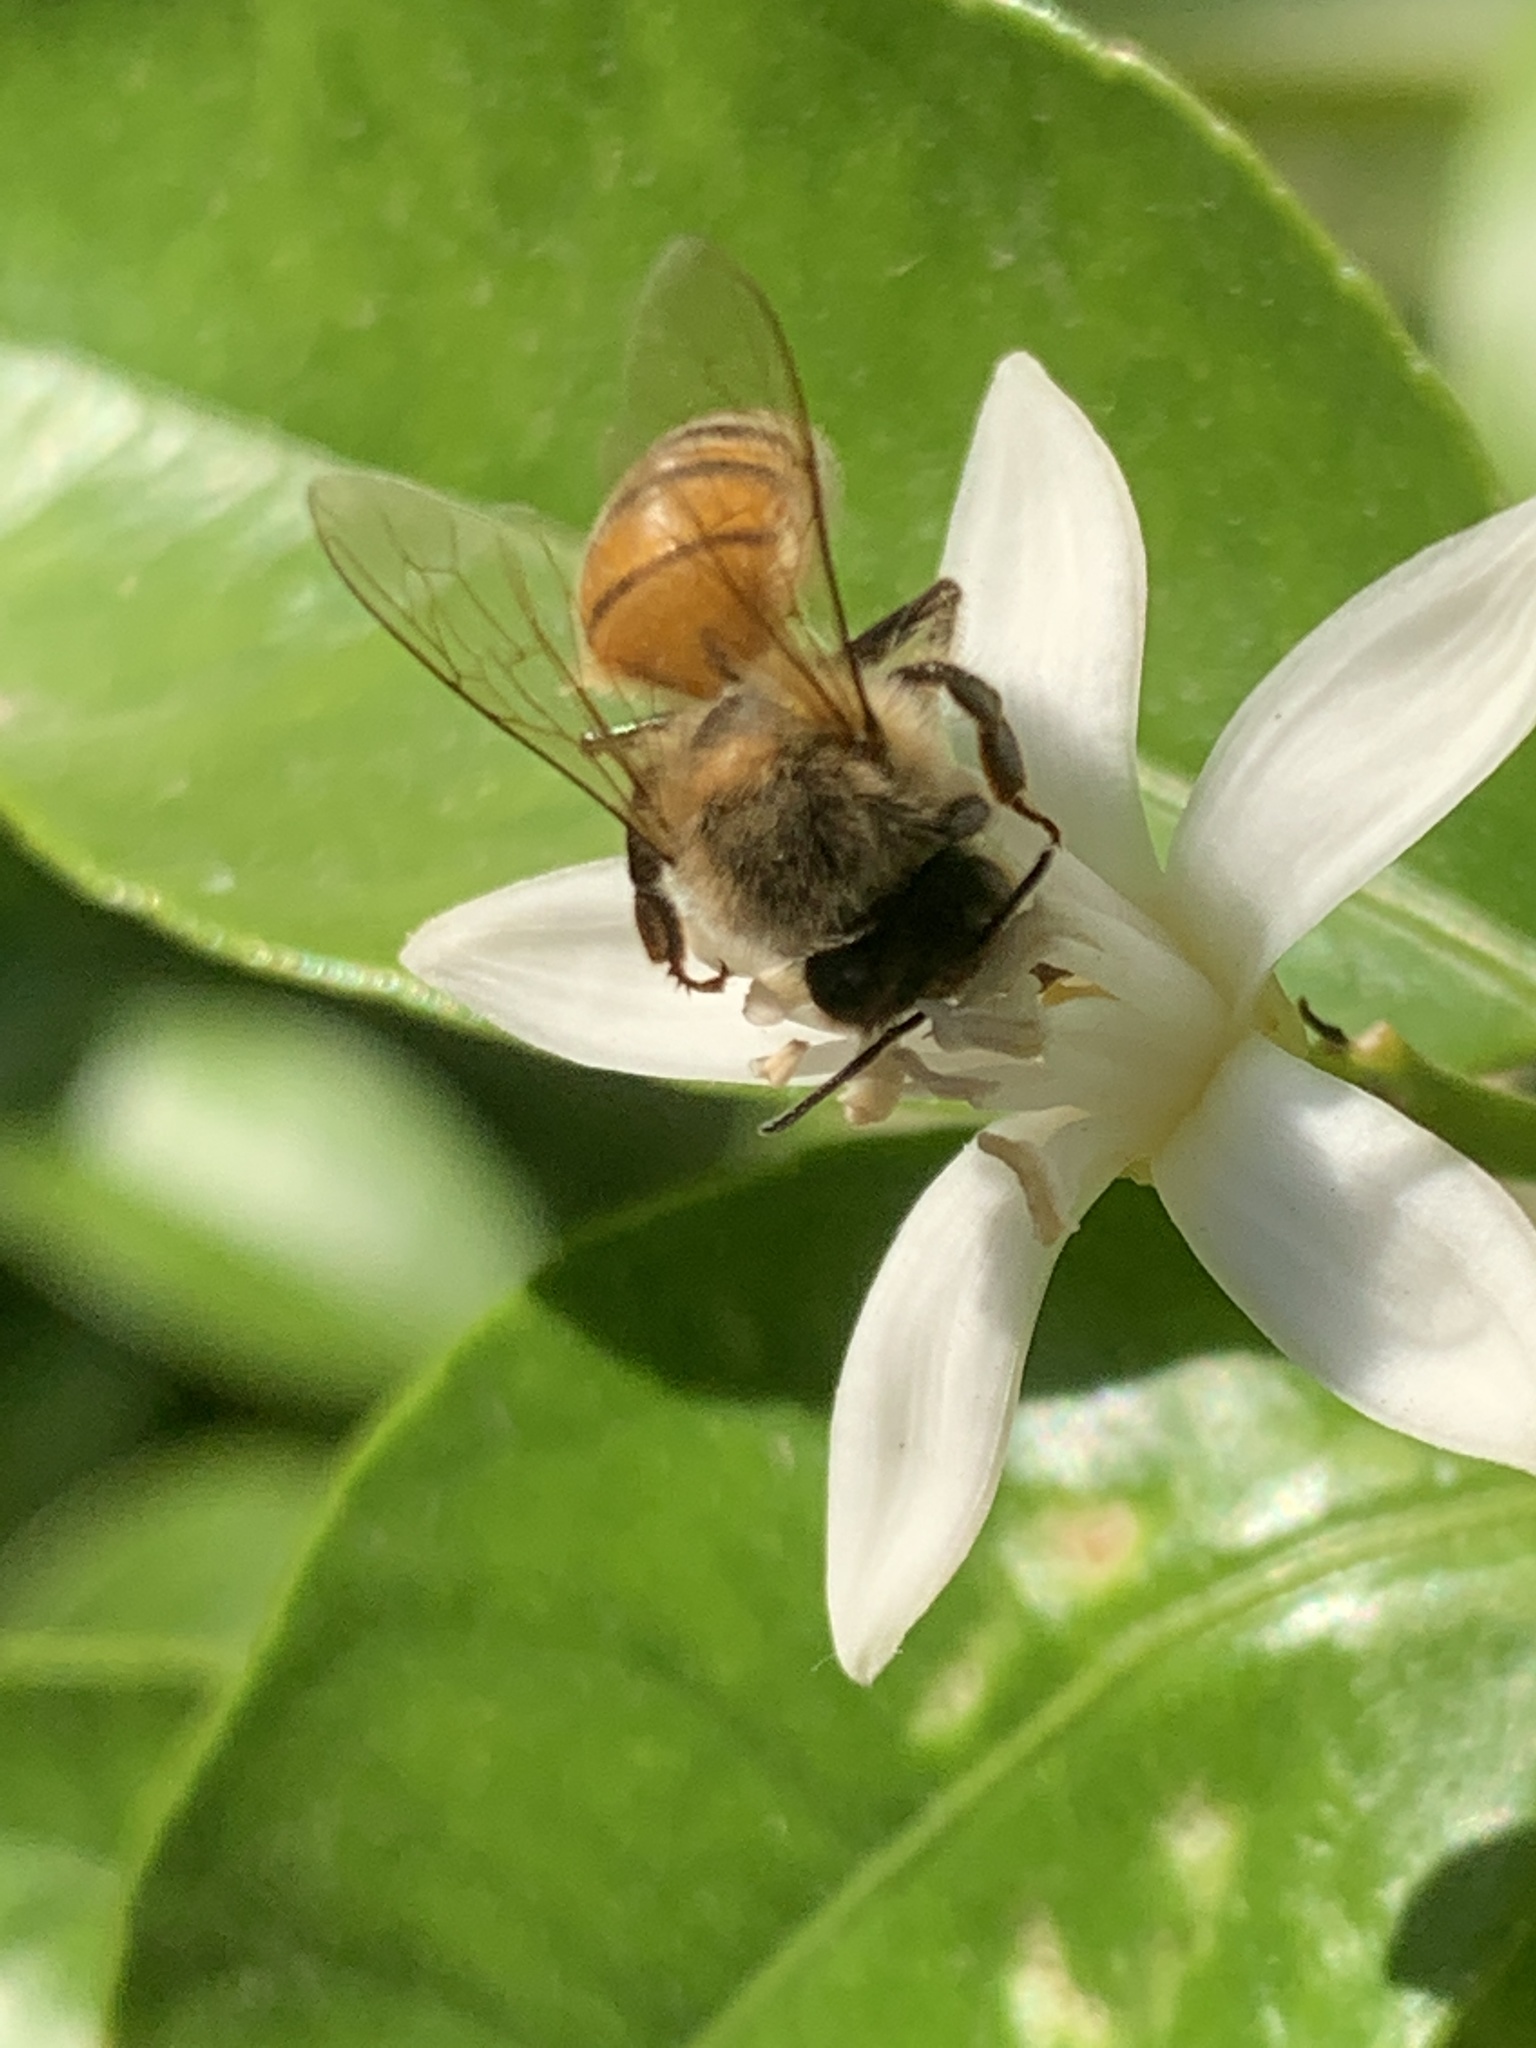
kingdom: Animalia
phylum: Arthropoda
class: Insecta
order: Hymenoptera
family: Apidae
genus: Apis
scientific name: Apis mellifera
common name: Honey bee
